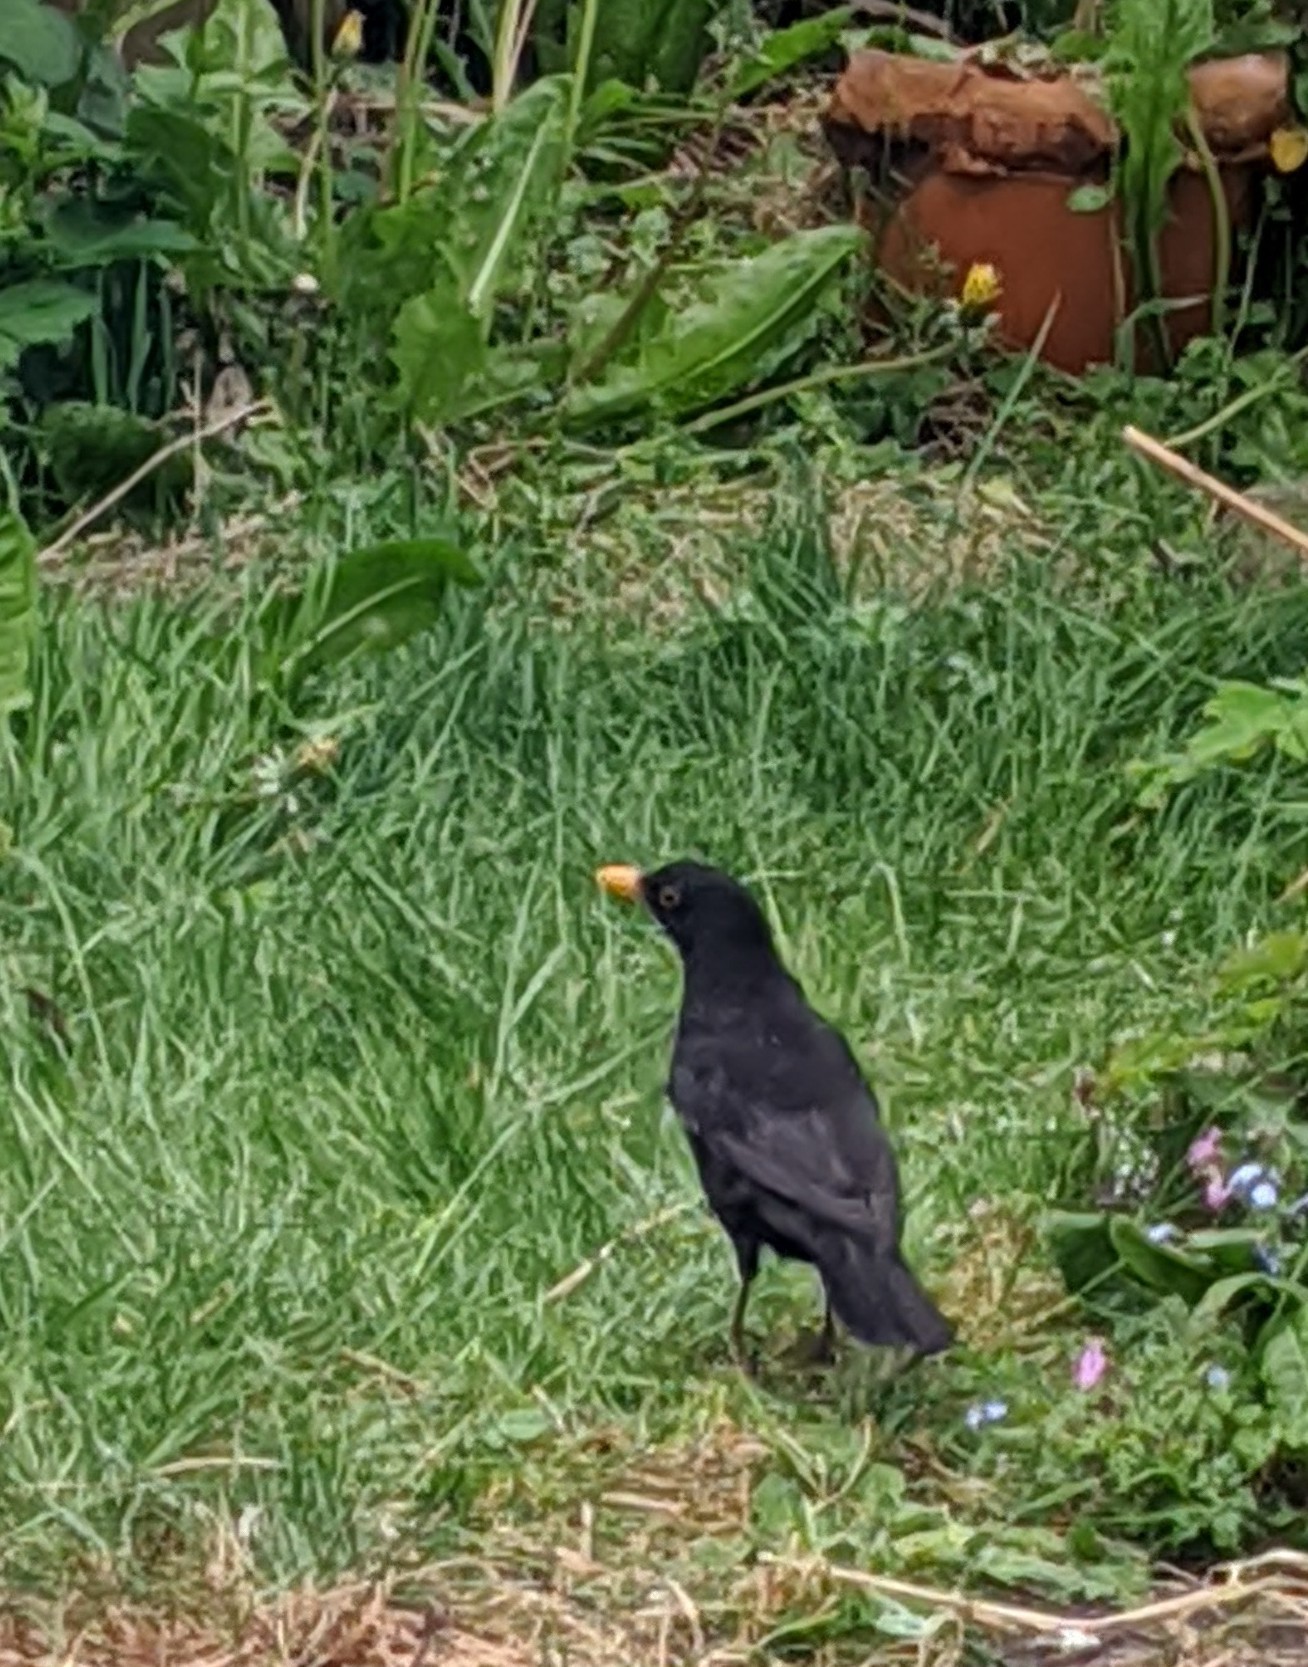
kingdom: Animalia
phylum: Chordata
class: Aves
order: Passeriformes
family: Turdidae
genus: Turdus
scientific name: Turdus merula
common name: Common blackbird
